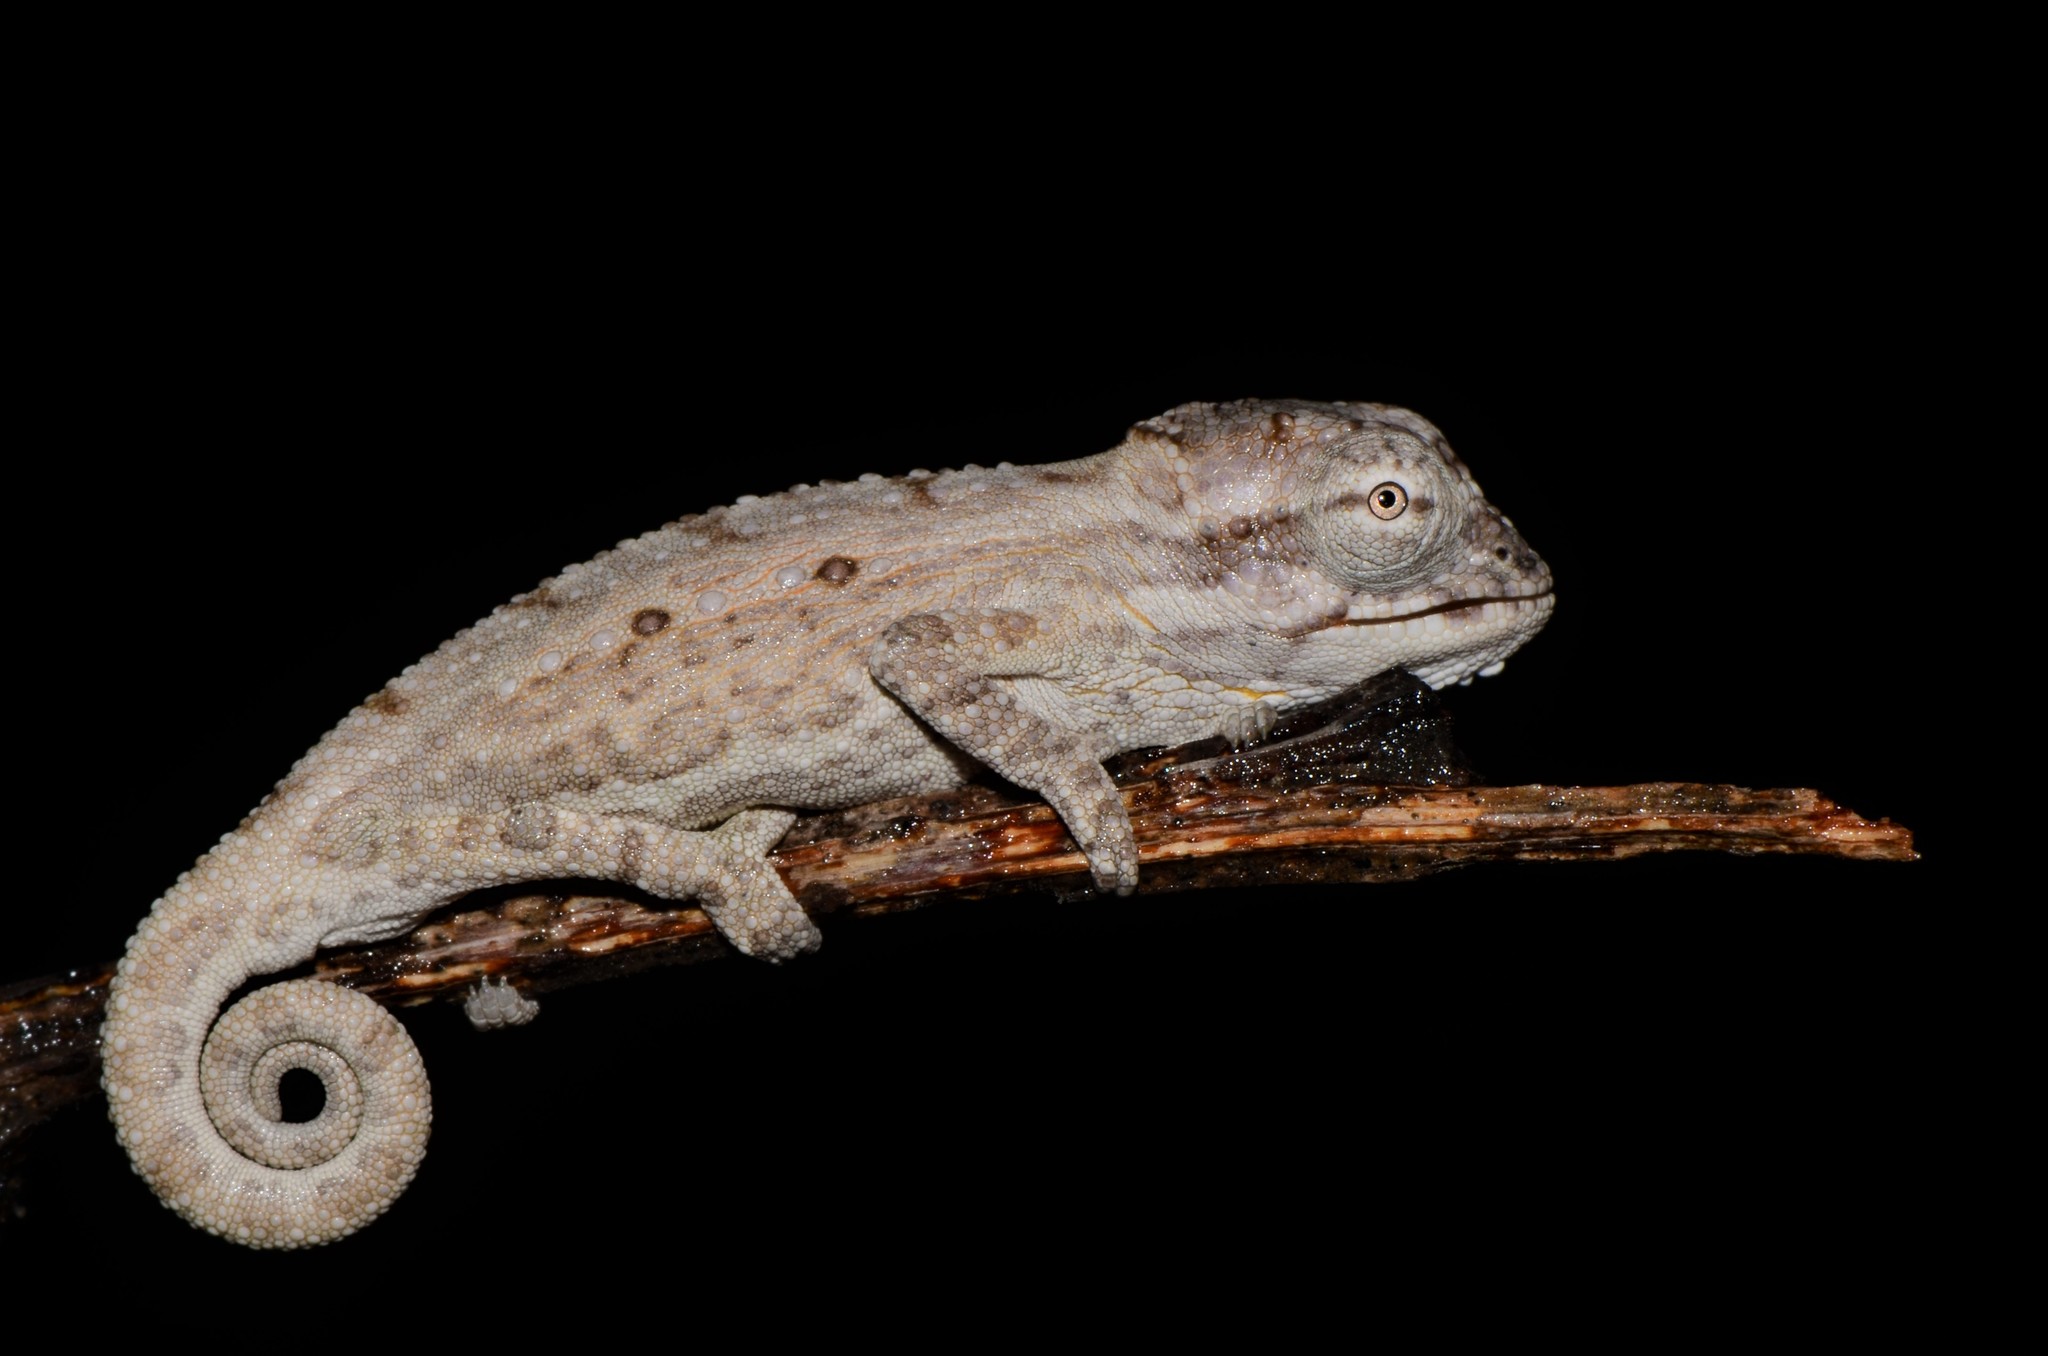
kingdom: Animalia
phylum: Chordata
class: Squamata
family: Chamaeleonidae
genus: Bradypodion
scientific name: Bradypodion pumilum
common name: Cape dwarf chameleon
